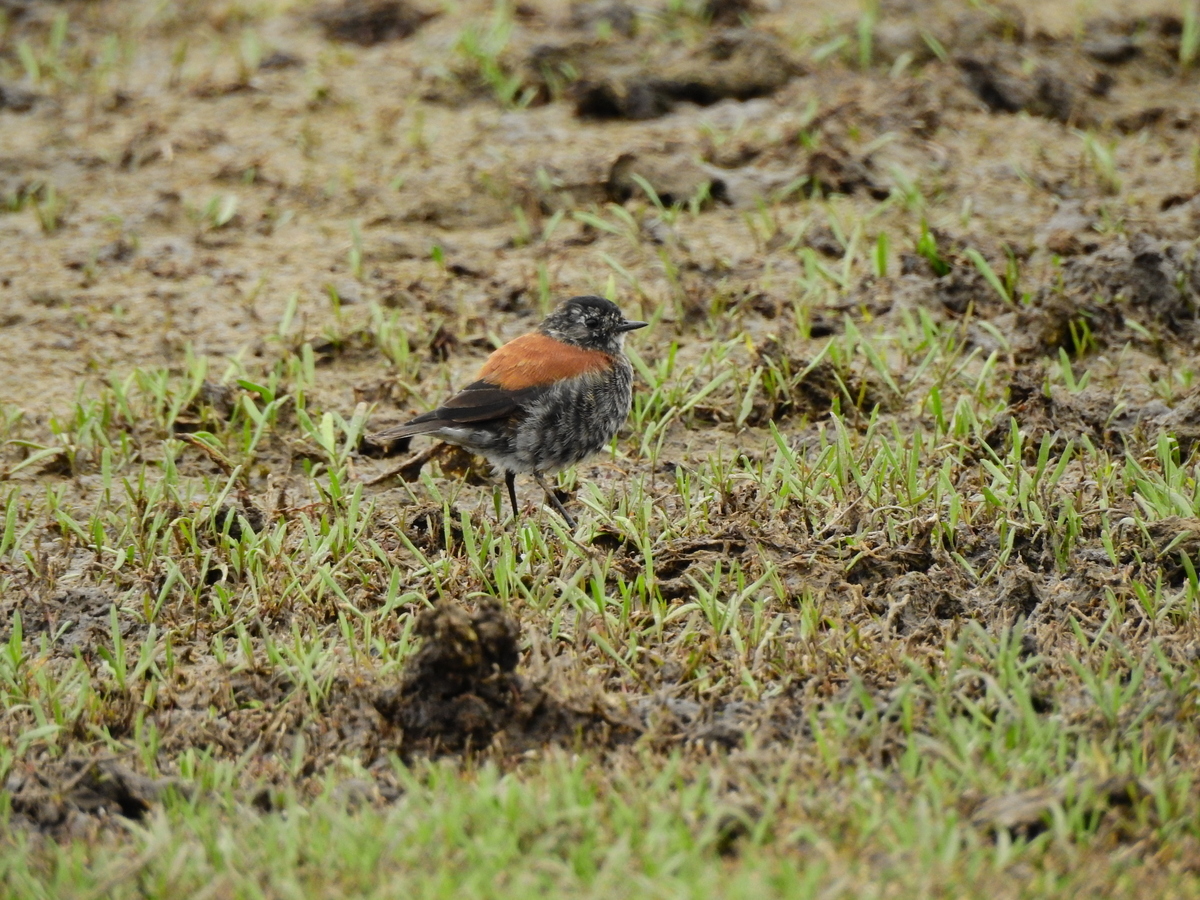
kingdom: Animalia
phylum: Chordata
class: Aves
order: Passeriformes
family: Tyrannidae
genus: Lessonia
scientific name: Lessonia rufa
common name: Austral negrito
